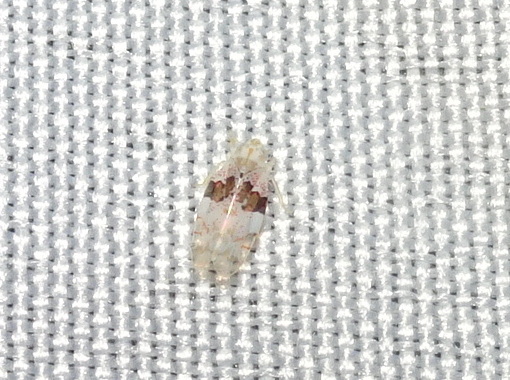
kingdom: Animalia
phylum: Arthropoda
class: Insecta
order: Hemiptera
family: Cicadellidae
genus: Hymetta
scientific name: Hymetta anthisma
